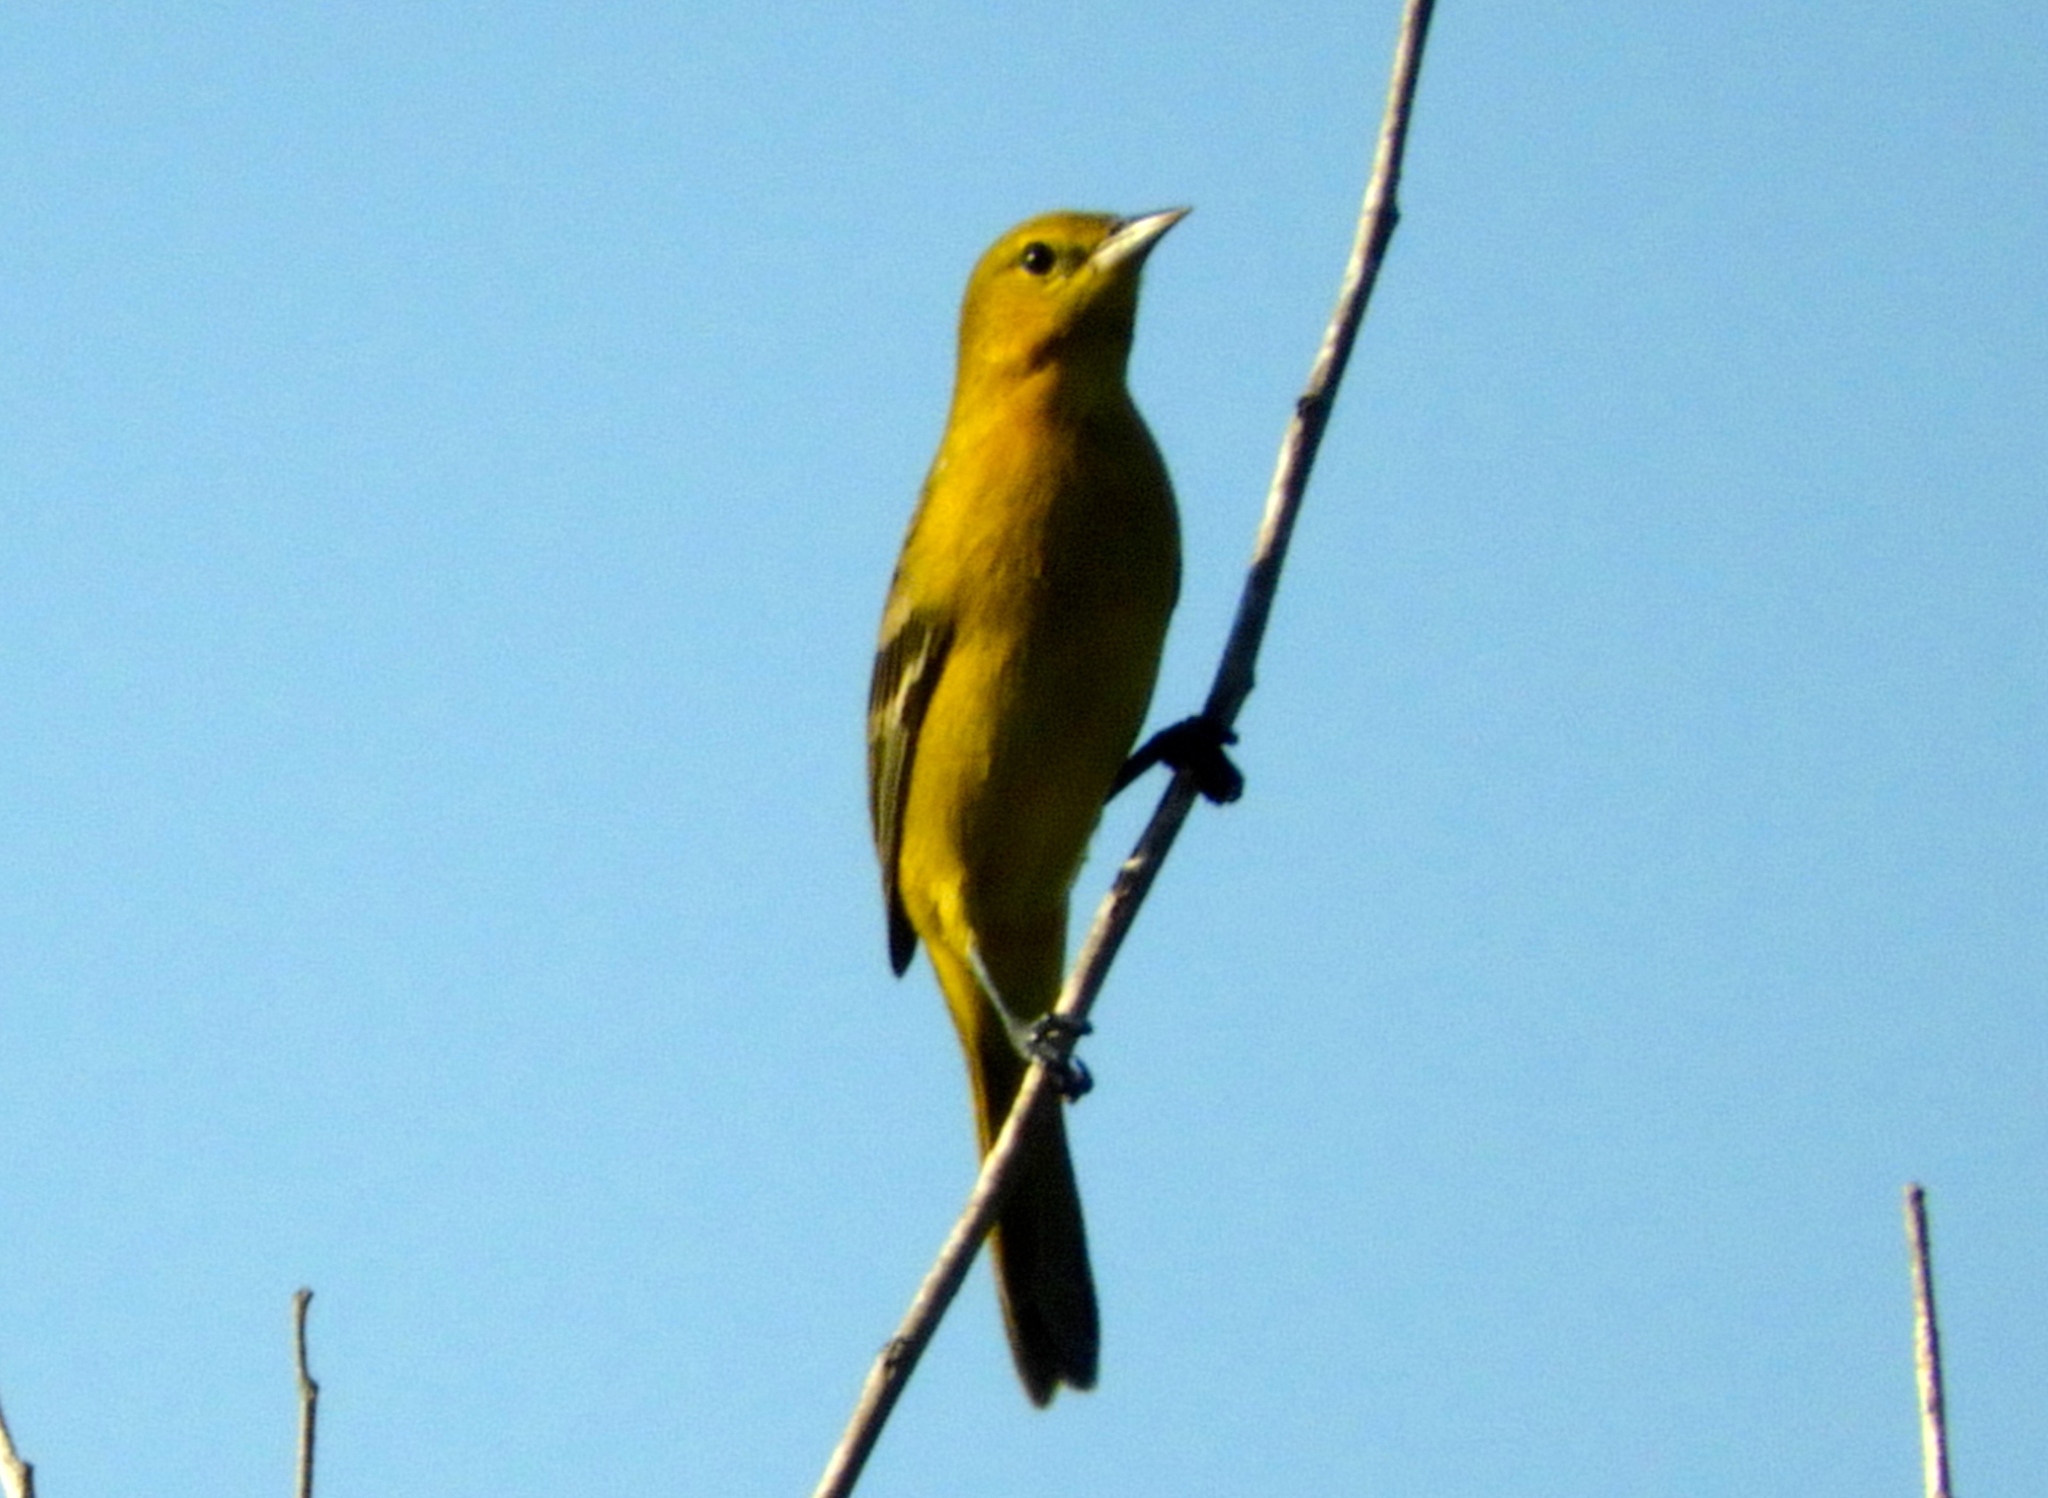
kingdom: Animalia
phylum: Chordata
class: Aves
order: Passeriformes
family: Icteridae
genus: Icterus
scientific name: Icterus spurius
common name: Orchard oriole
